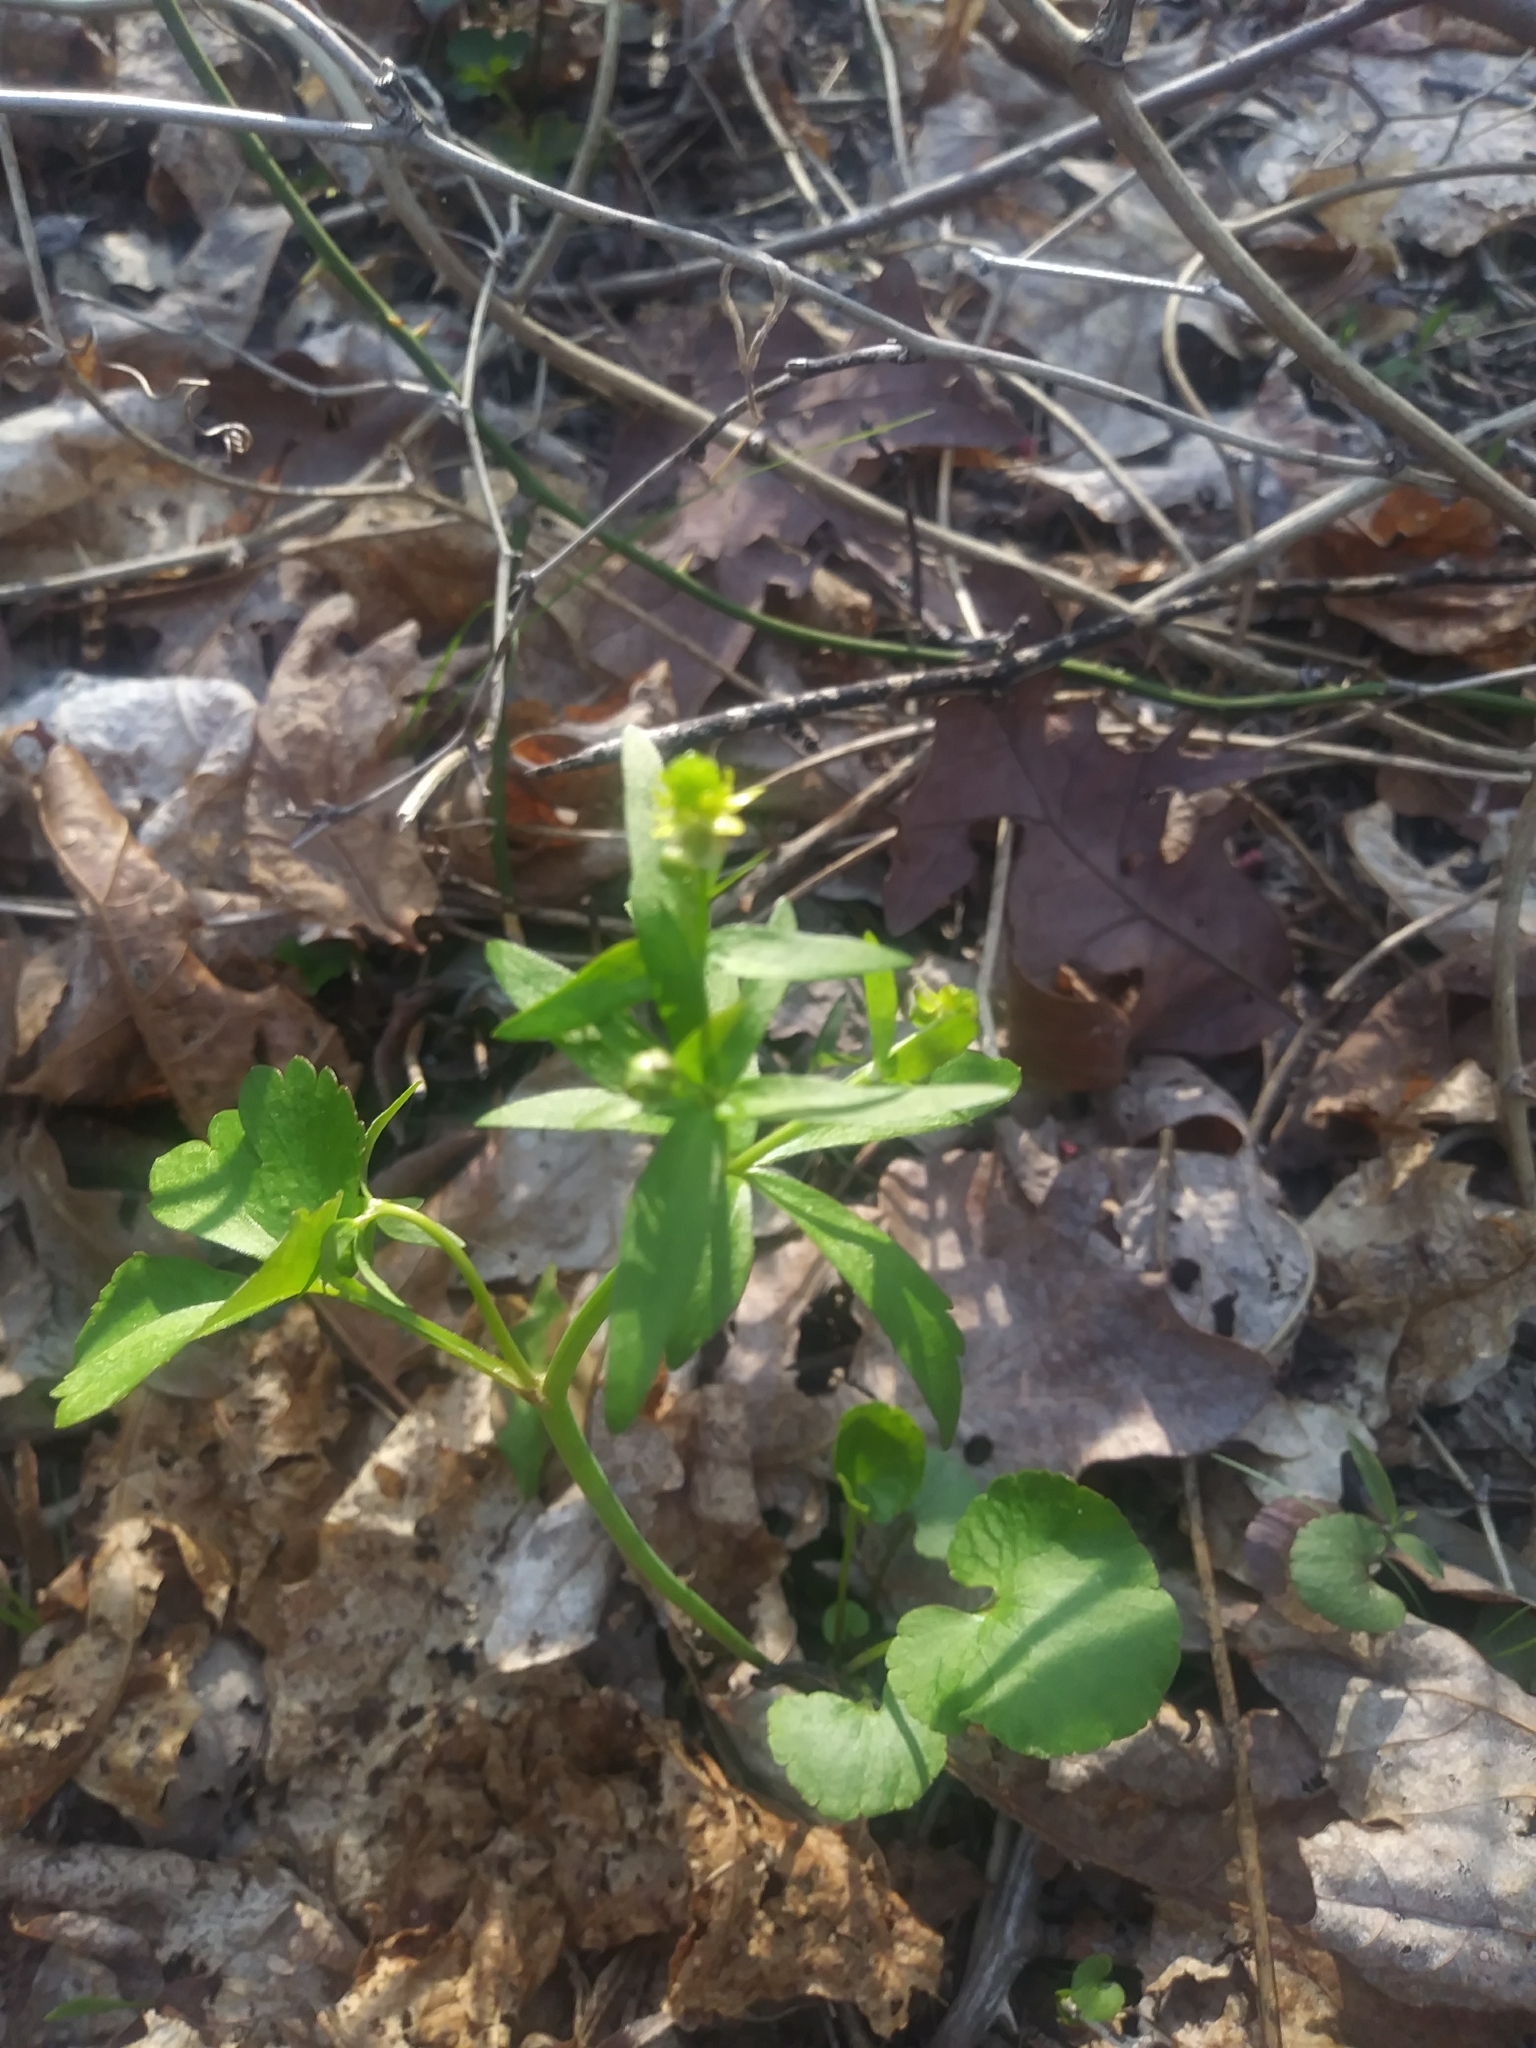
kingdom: Plantae
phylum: Tracheophyta
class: Magnoliopsida
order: Ranunculales
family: Ranunculaceae
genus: Ranunculus
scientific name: Ranunculus abortivus
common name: Early wood buttercup
